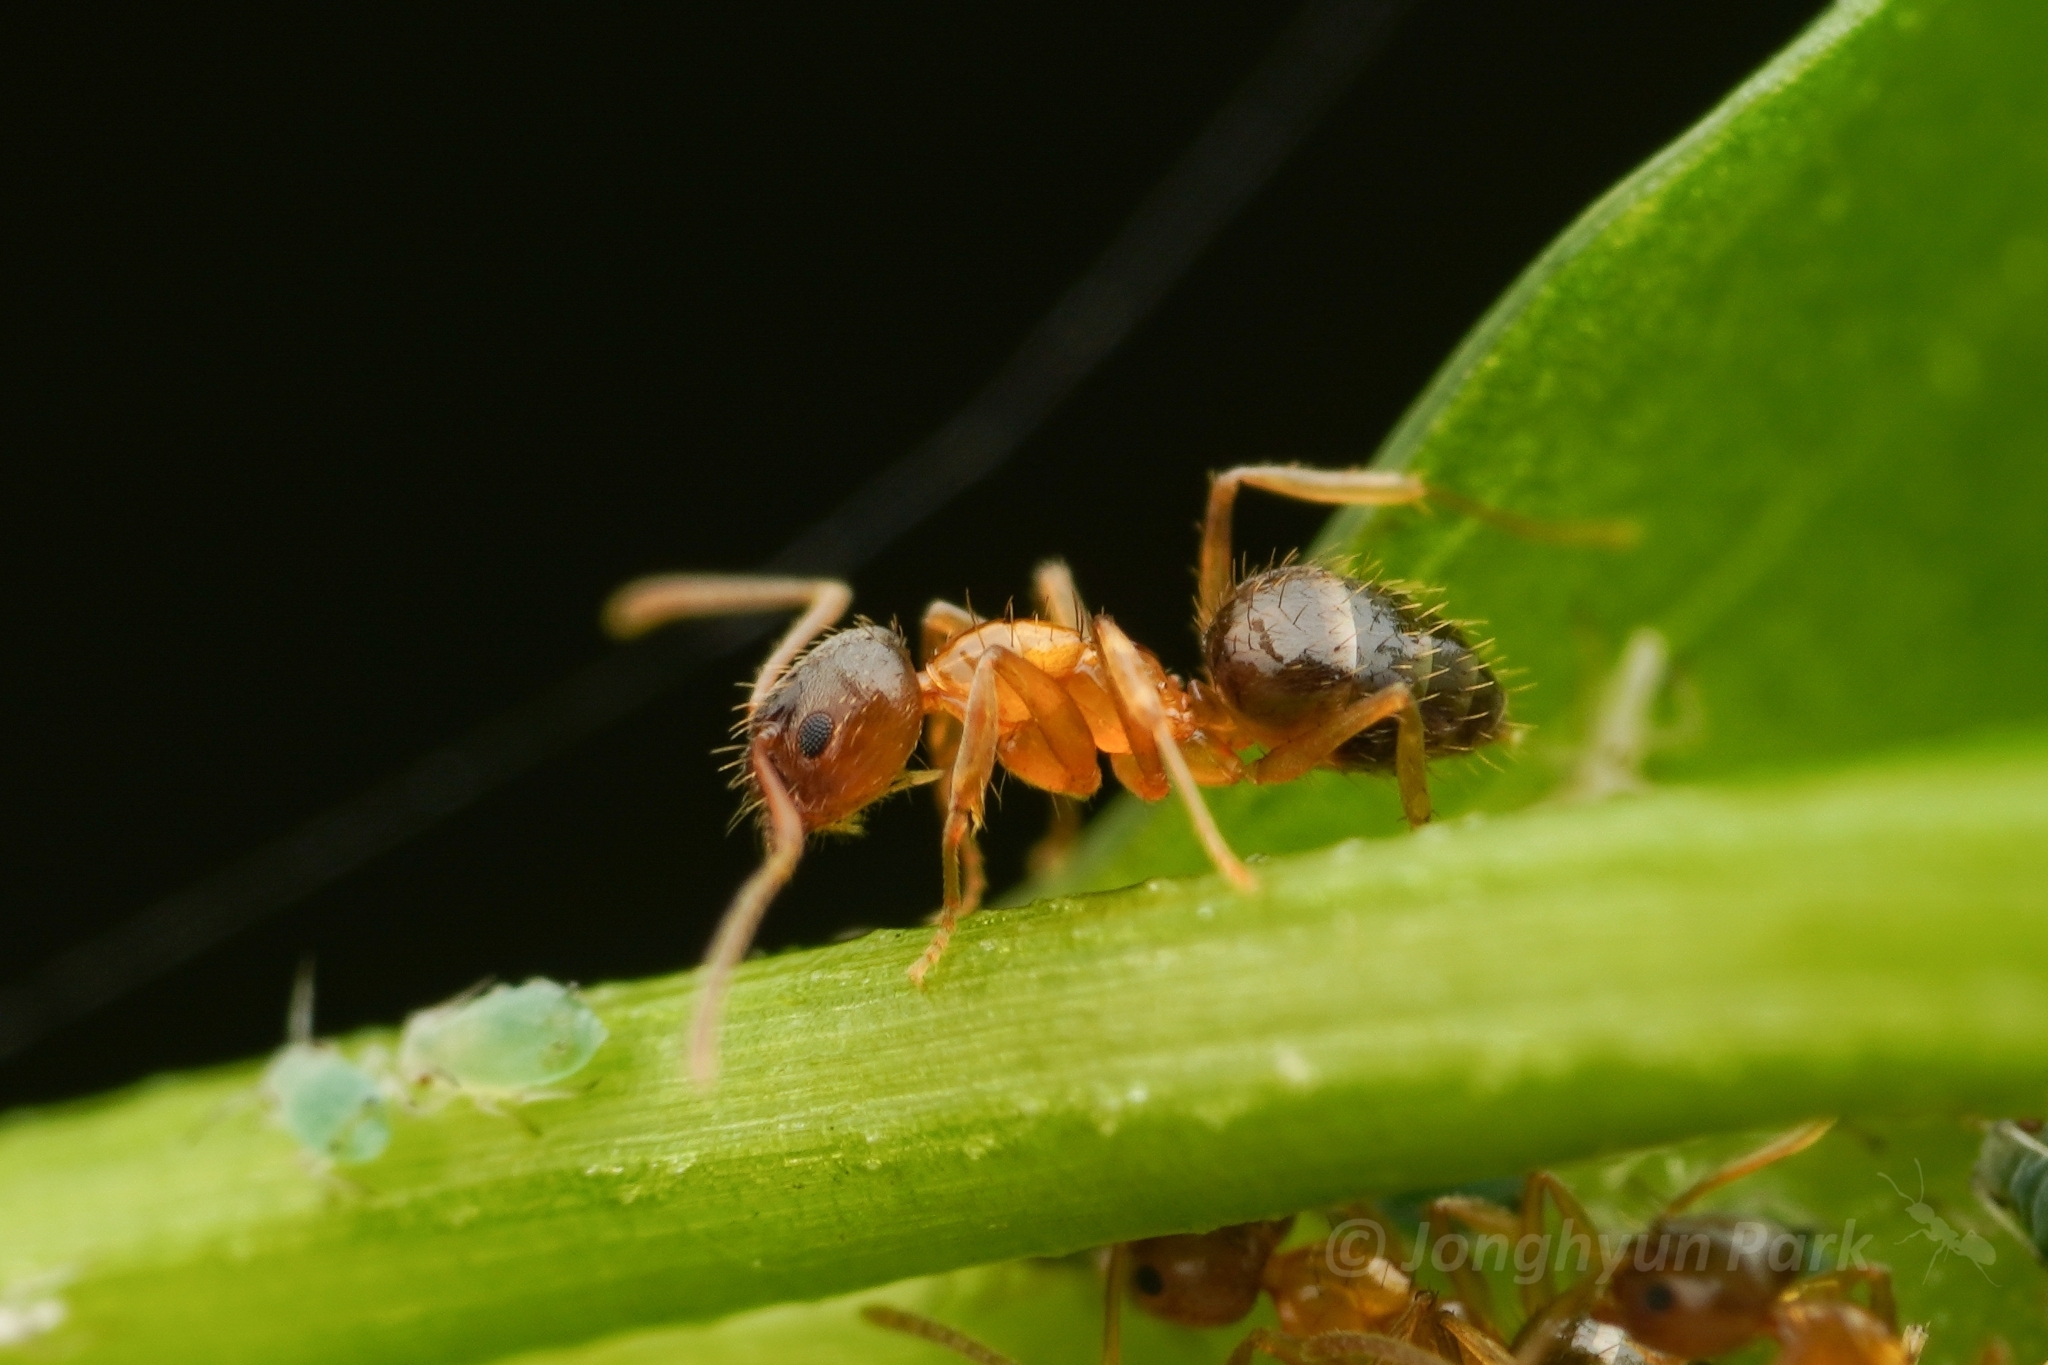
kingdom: Animalia
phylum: Arthropoda
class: Insecta
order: Hymenoptera
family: Formicidae
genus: Paratrechina
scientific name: Paratrechina flavipes
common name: Eastern asian formicine ant
